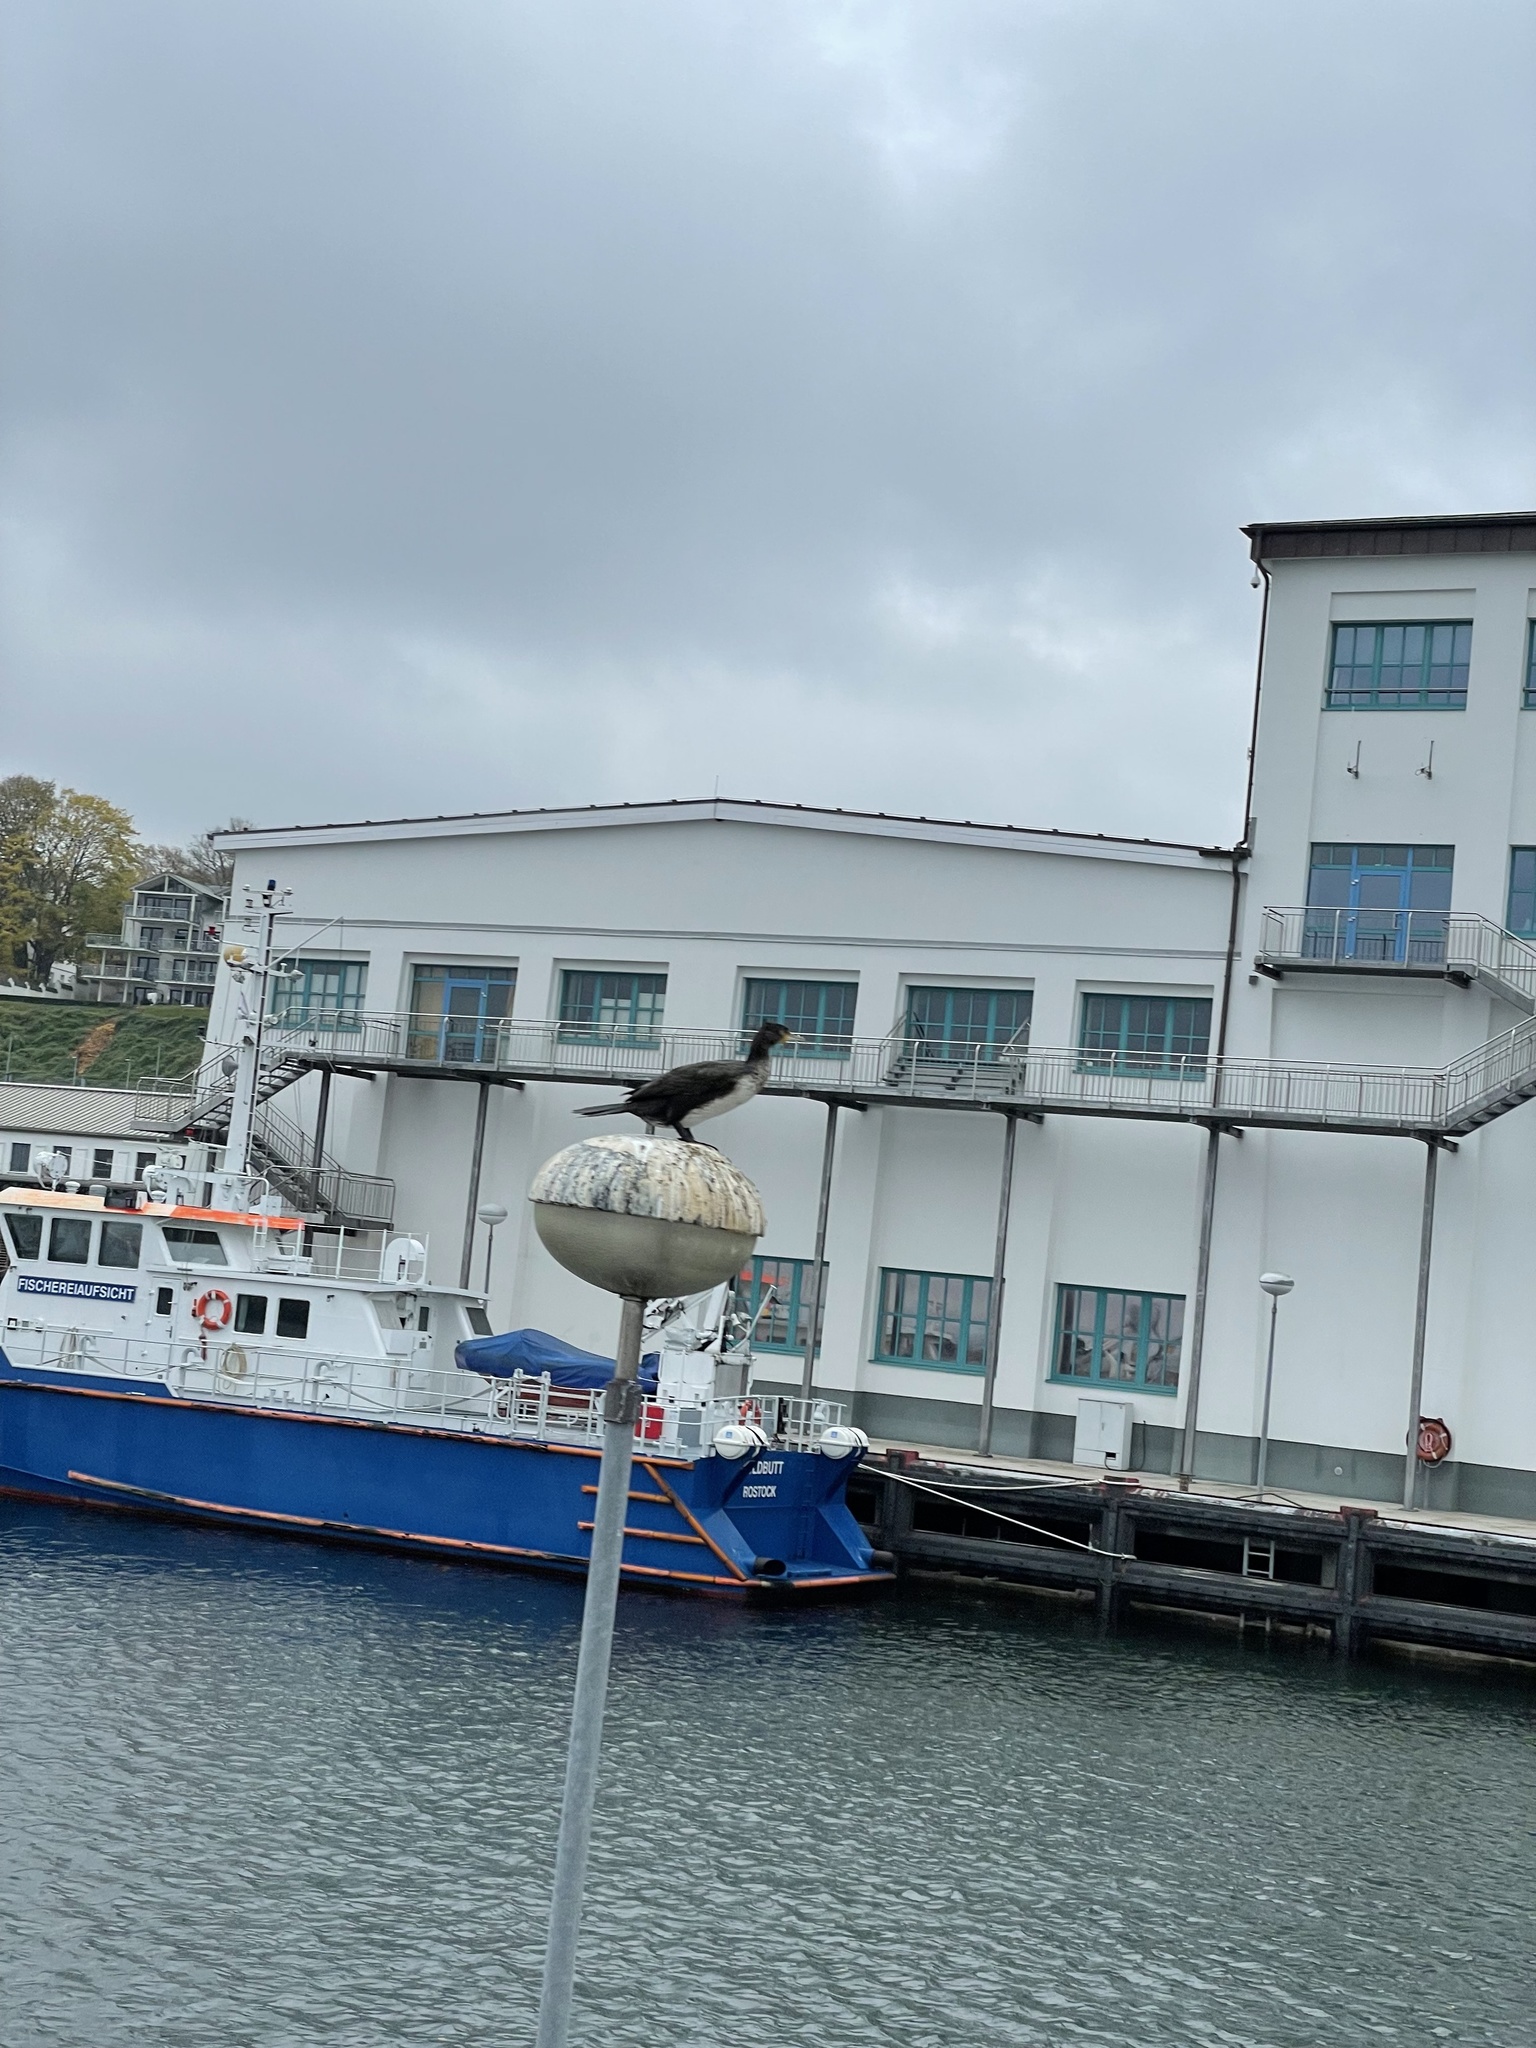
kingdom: Animalia
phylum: Chordata
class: Aves
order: Suliformes
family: Phalacrocoracidae
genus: Phalacrocorax
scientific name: Phalacrocorax carbo
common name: Great cormorant
